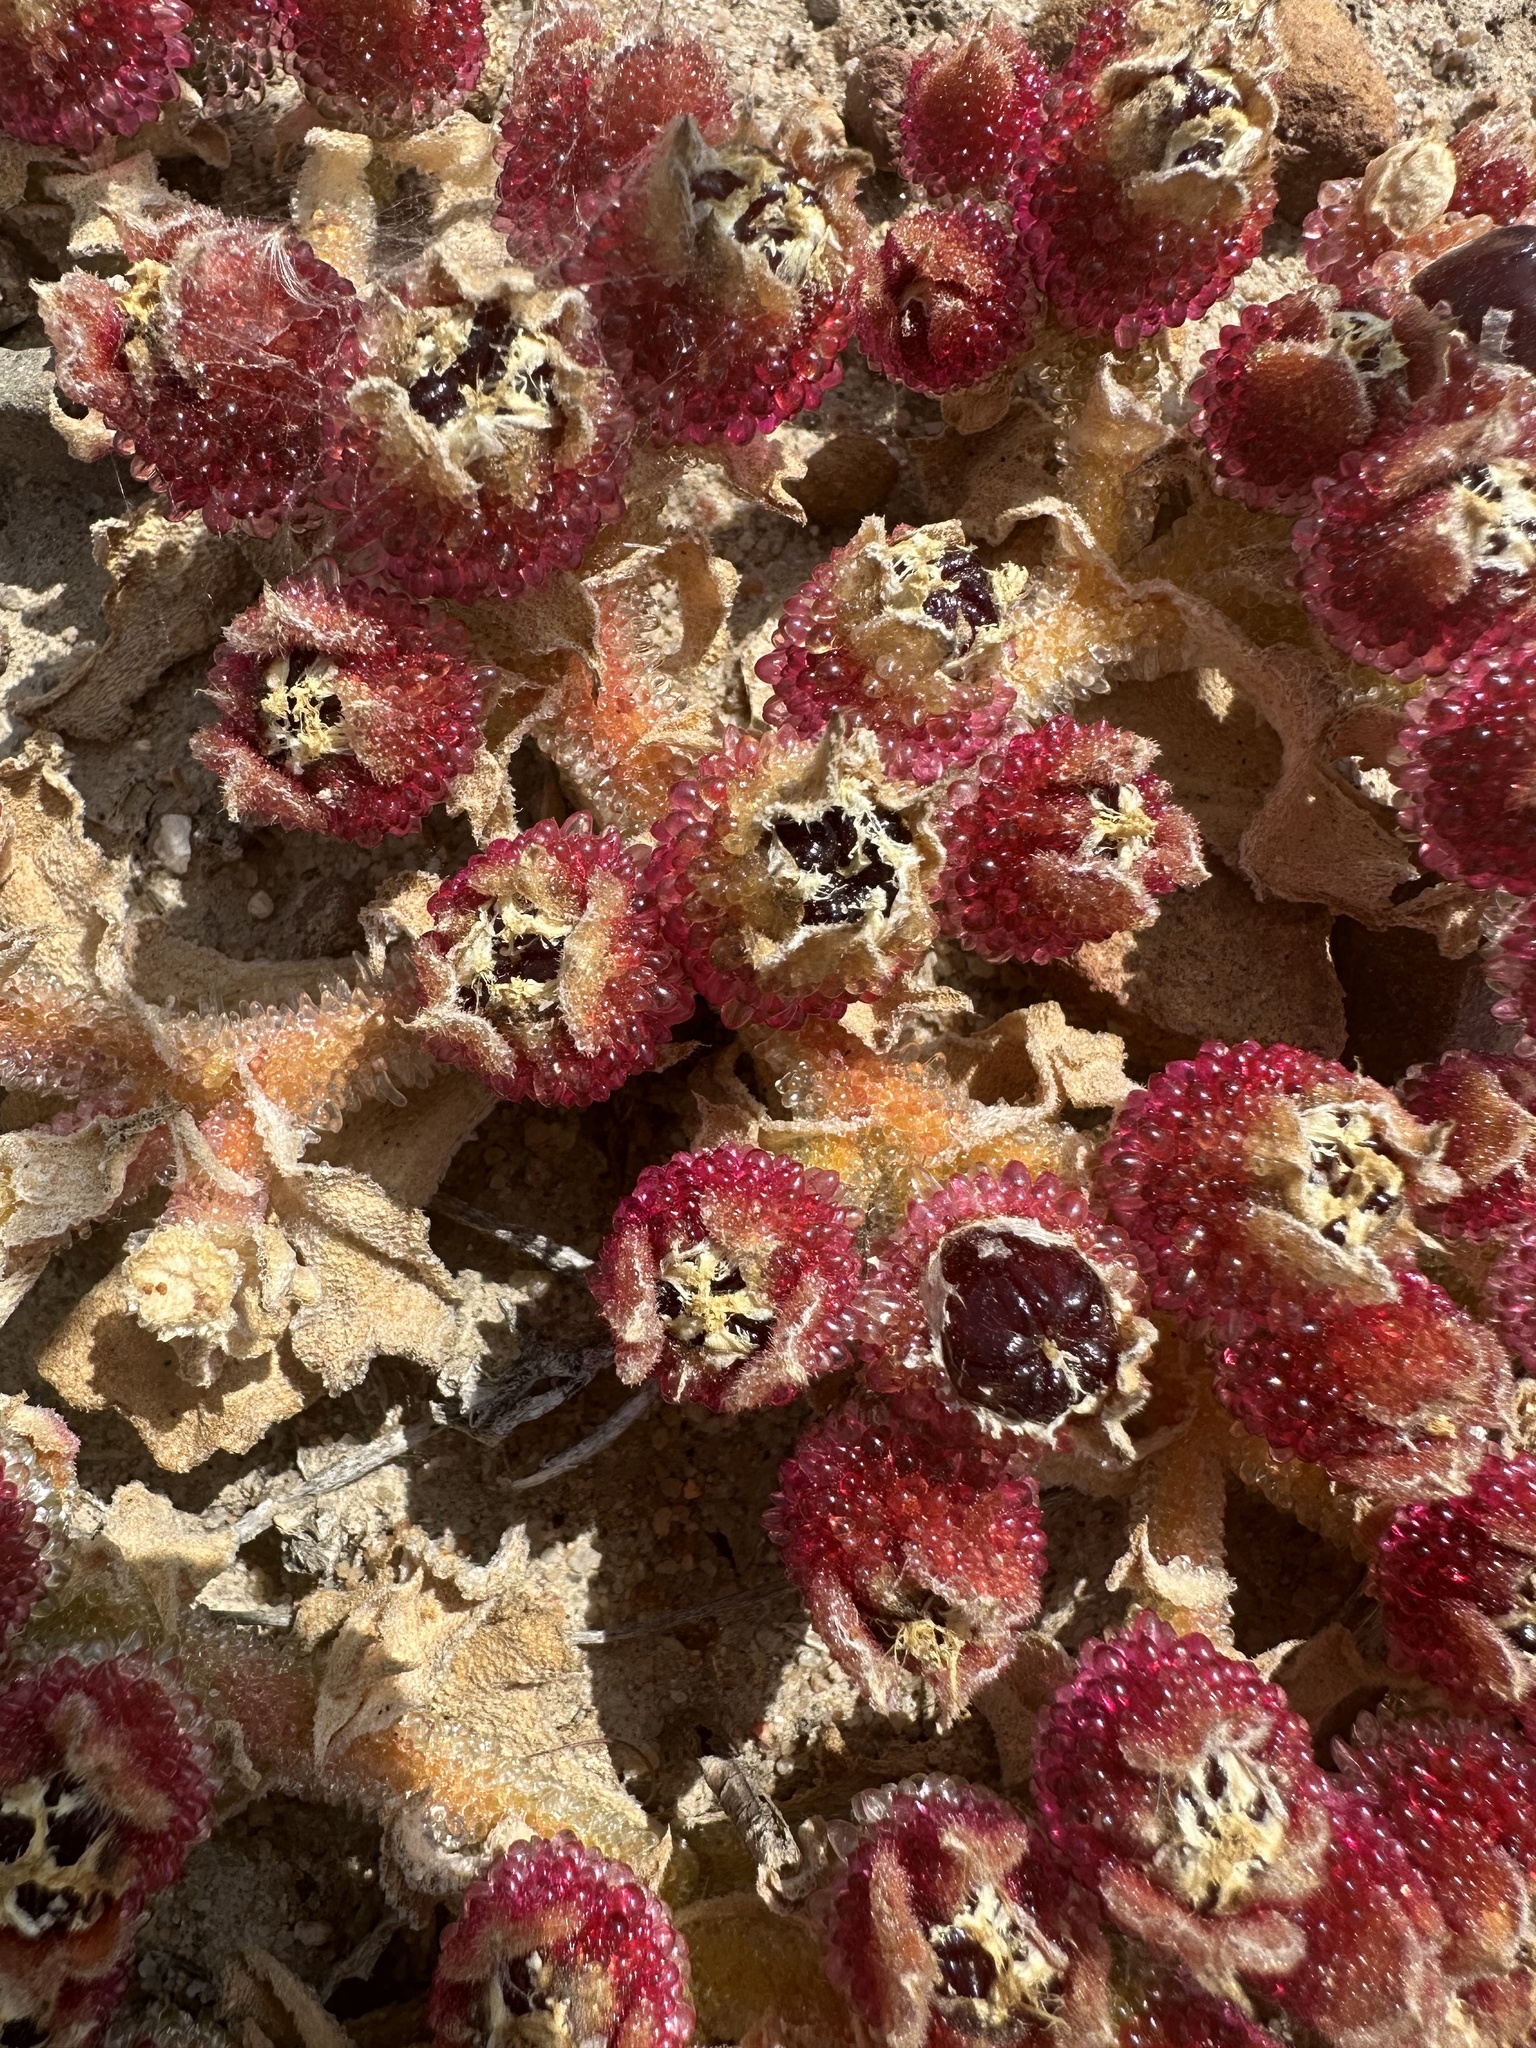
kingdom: Plantae
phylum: Tracheophyta
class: Magnoliopsida
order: Caryophyllales
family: Aizoaceae
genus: Mesembryanthemum
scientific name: Mesembryanthemum crystallinum
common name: Common iceplant
